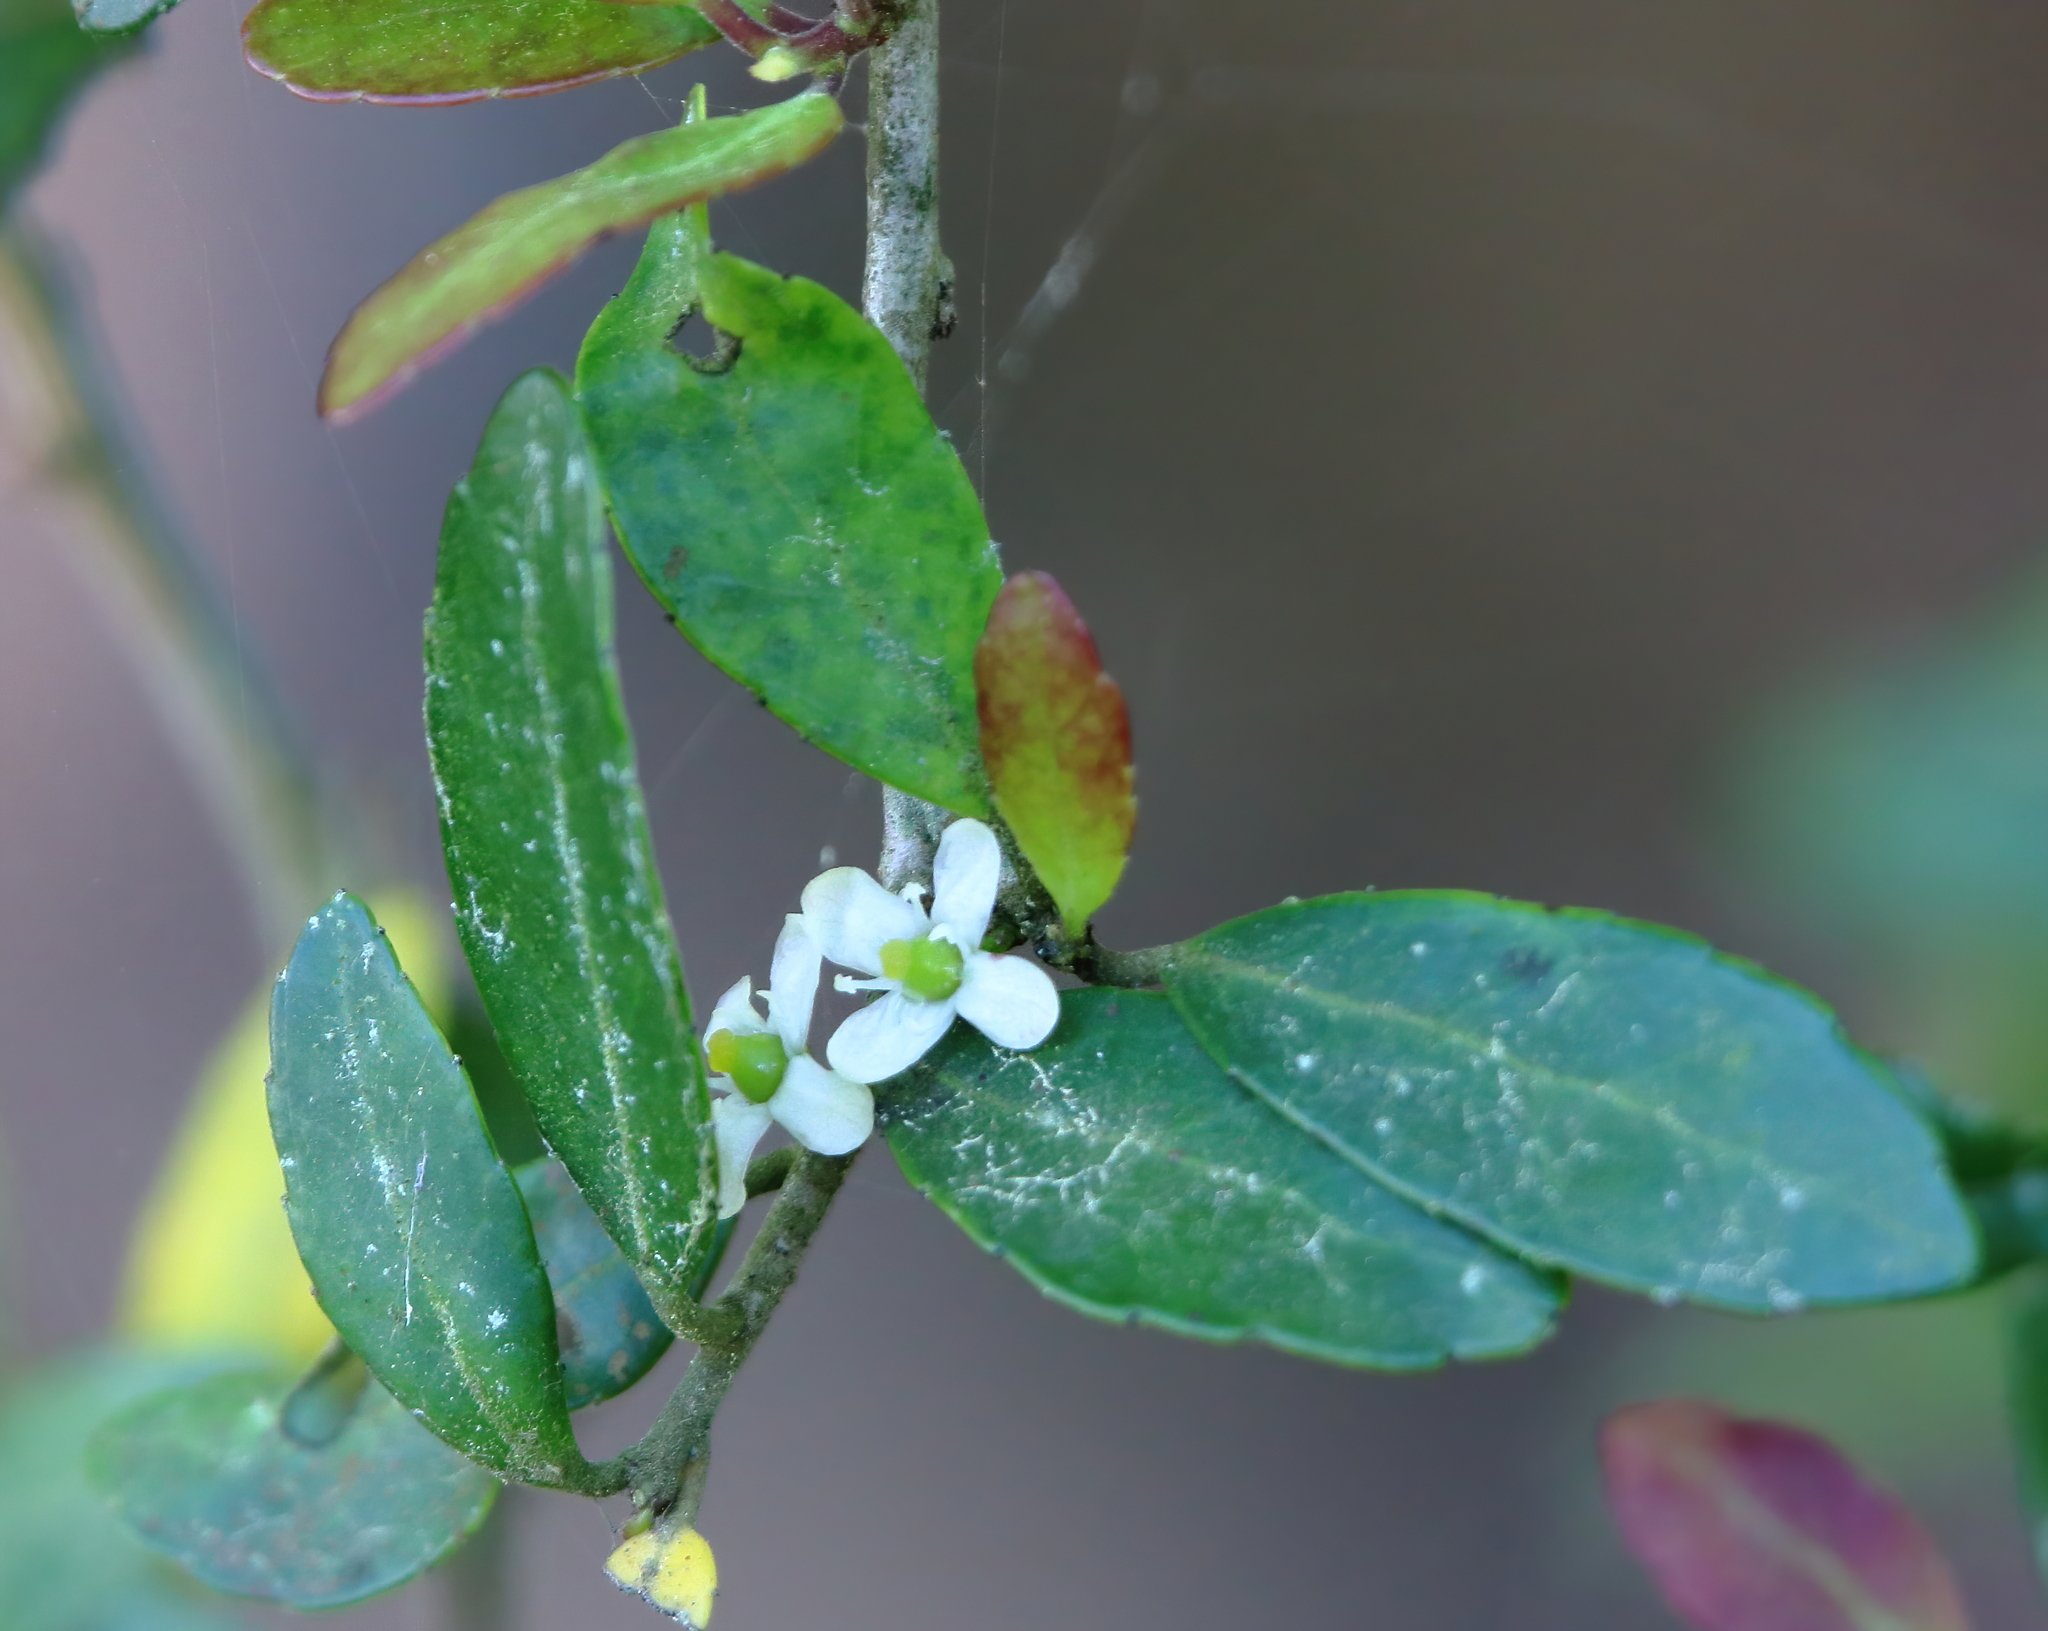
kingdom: Plantae
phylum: Tracheophyta
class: Magnoliopsida
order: Aquifoliales
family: Aquifoliaceae
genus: Ilex
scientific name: Ilex vomitoria
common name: Yaupon holly
